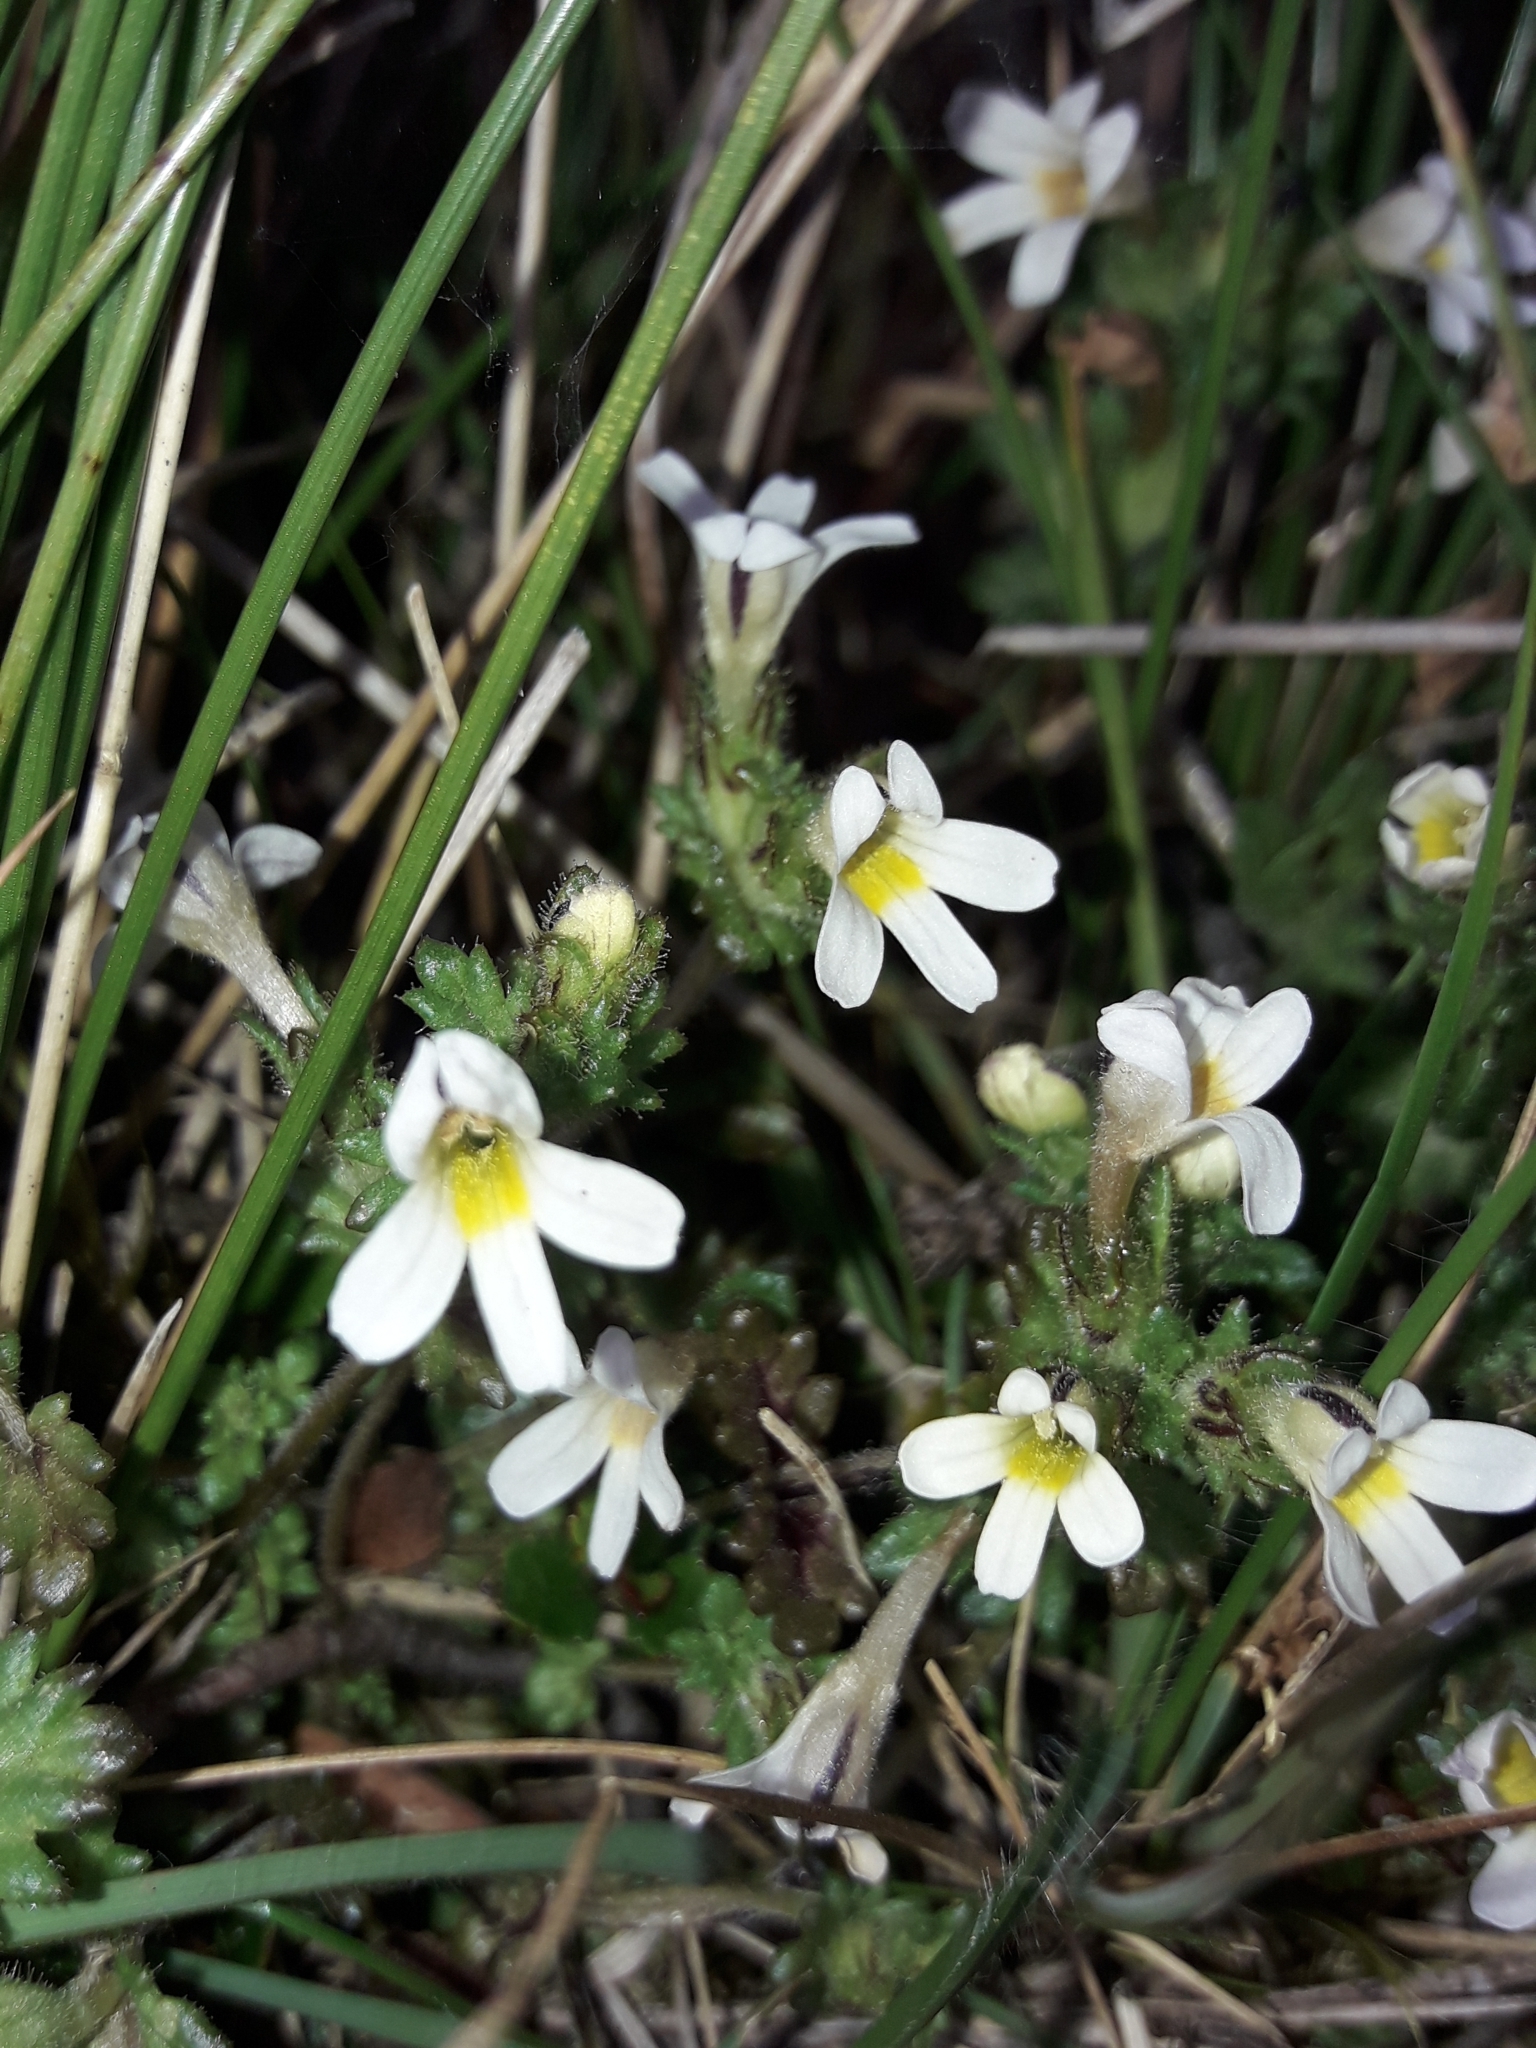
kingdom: Plantae
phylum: Tracheophyta
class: Magnoliopsida
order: Lamiales
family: Orobanchaceae
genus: Euphrasia
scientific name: Euphrasia zelandica
